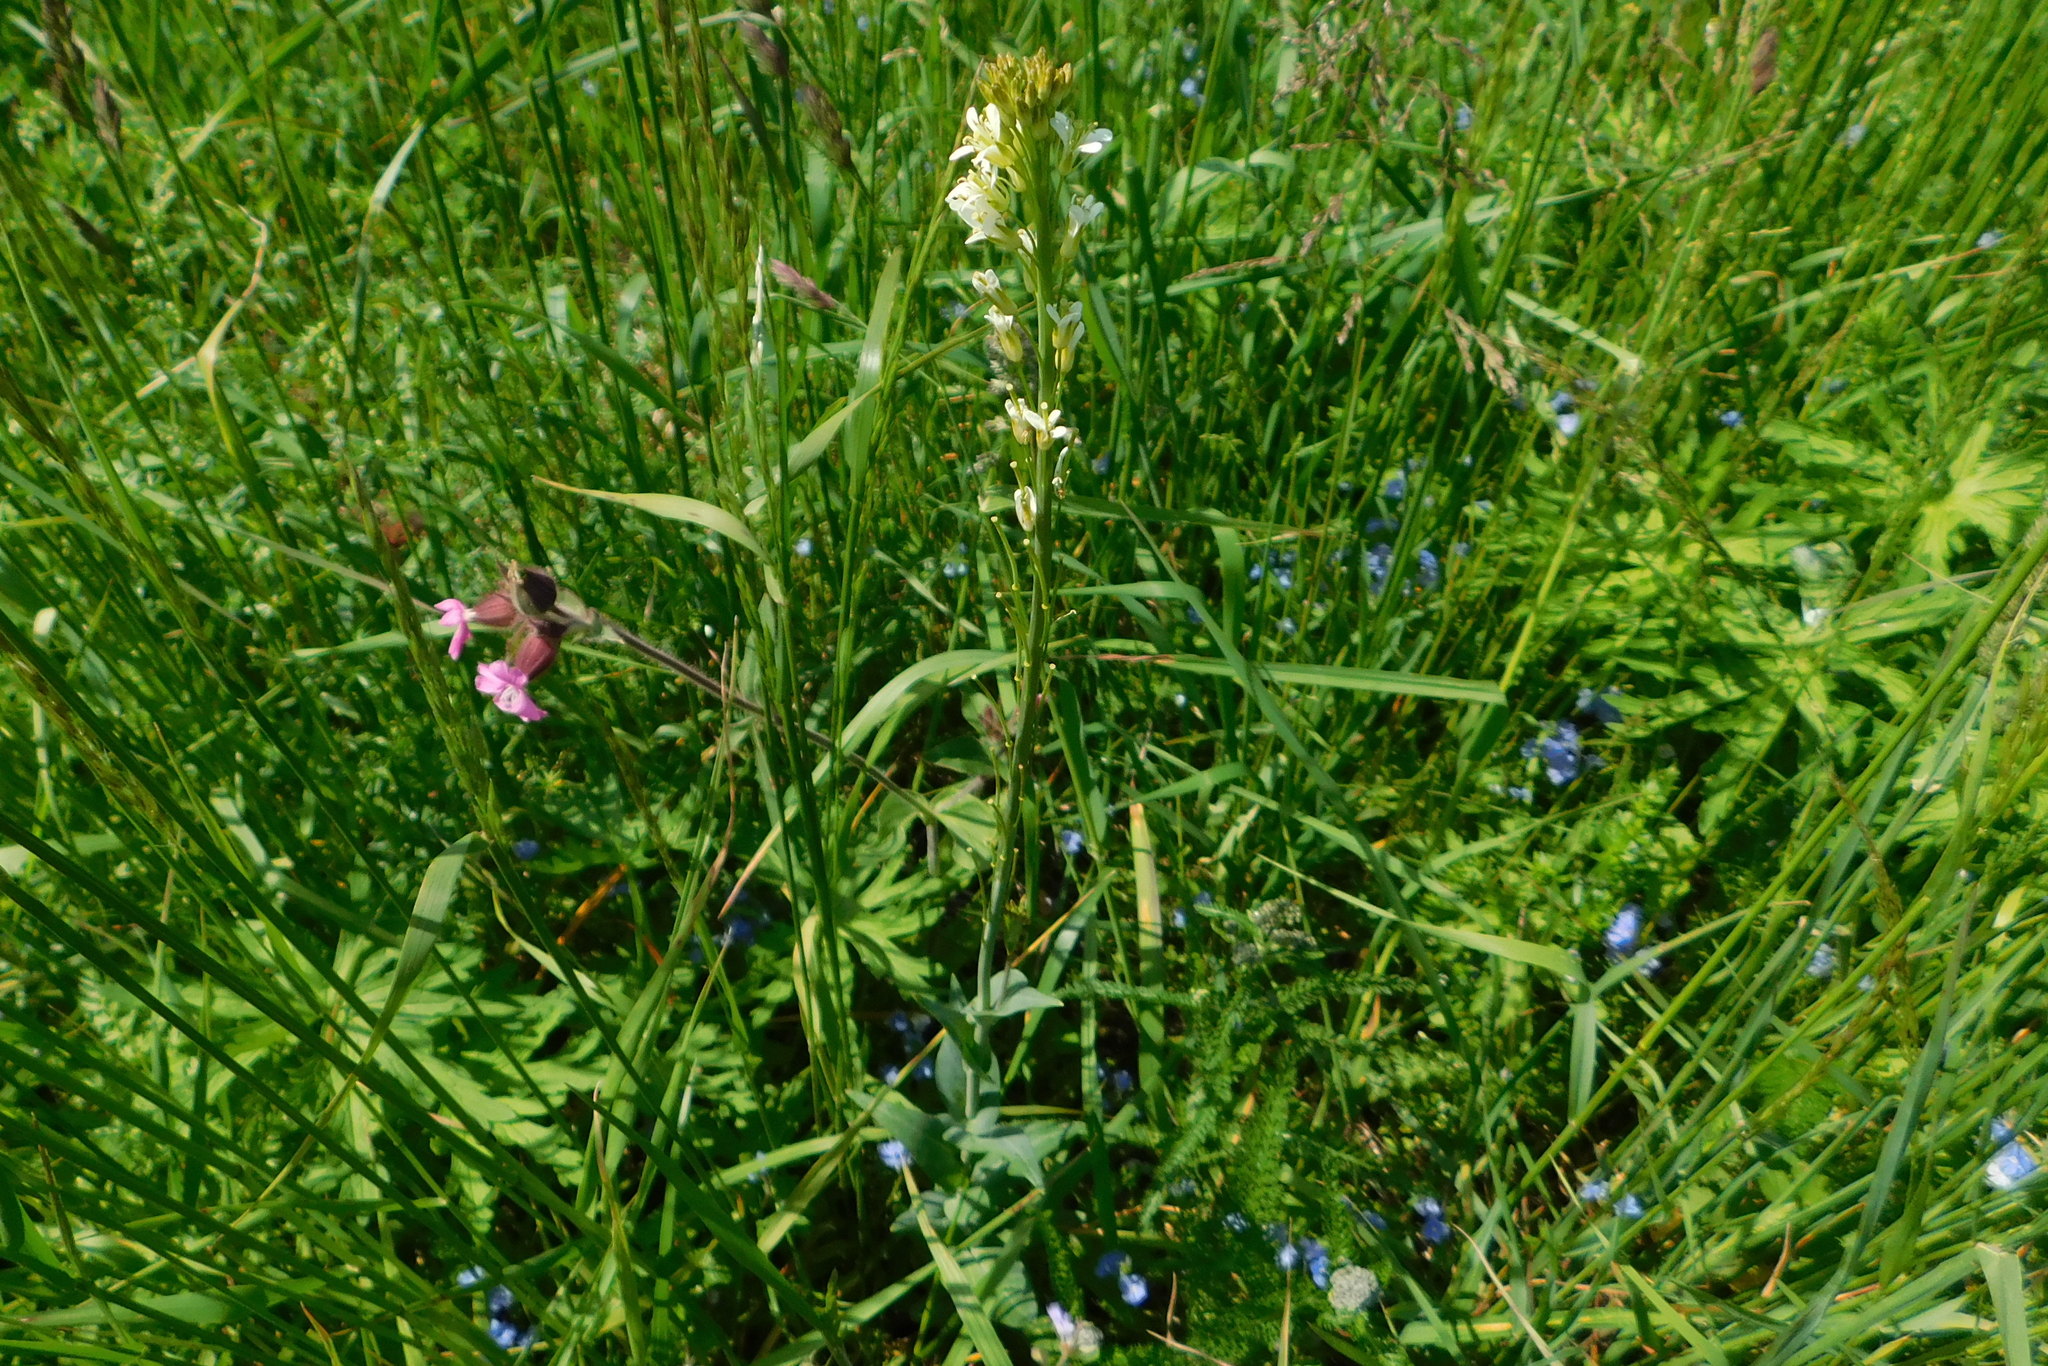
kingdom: Plantae
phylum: Tracheophyta
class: Magnoliopsida
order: Brassicales
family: Brassicaceae
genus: Turritis
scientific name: Turritis glabra
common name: Tower rockcress
